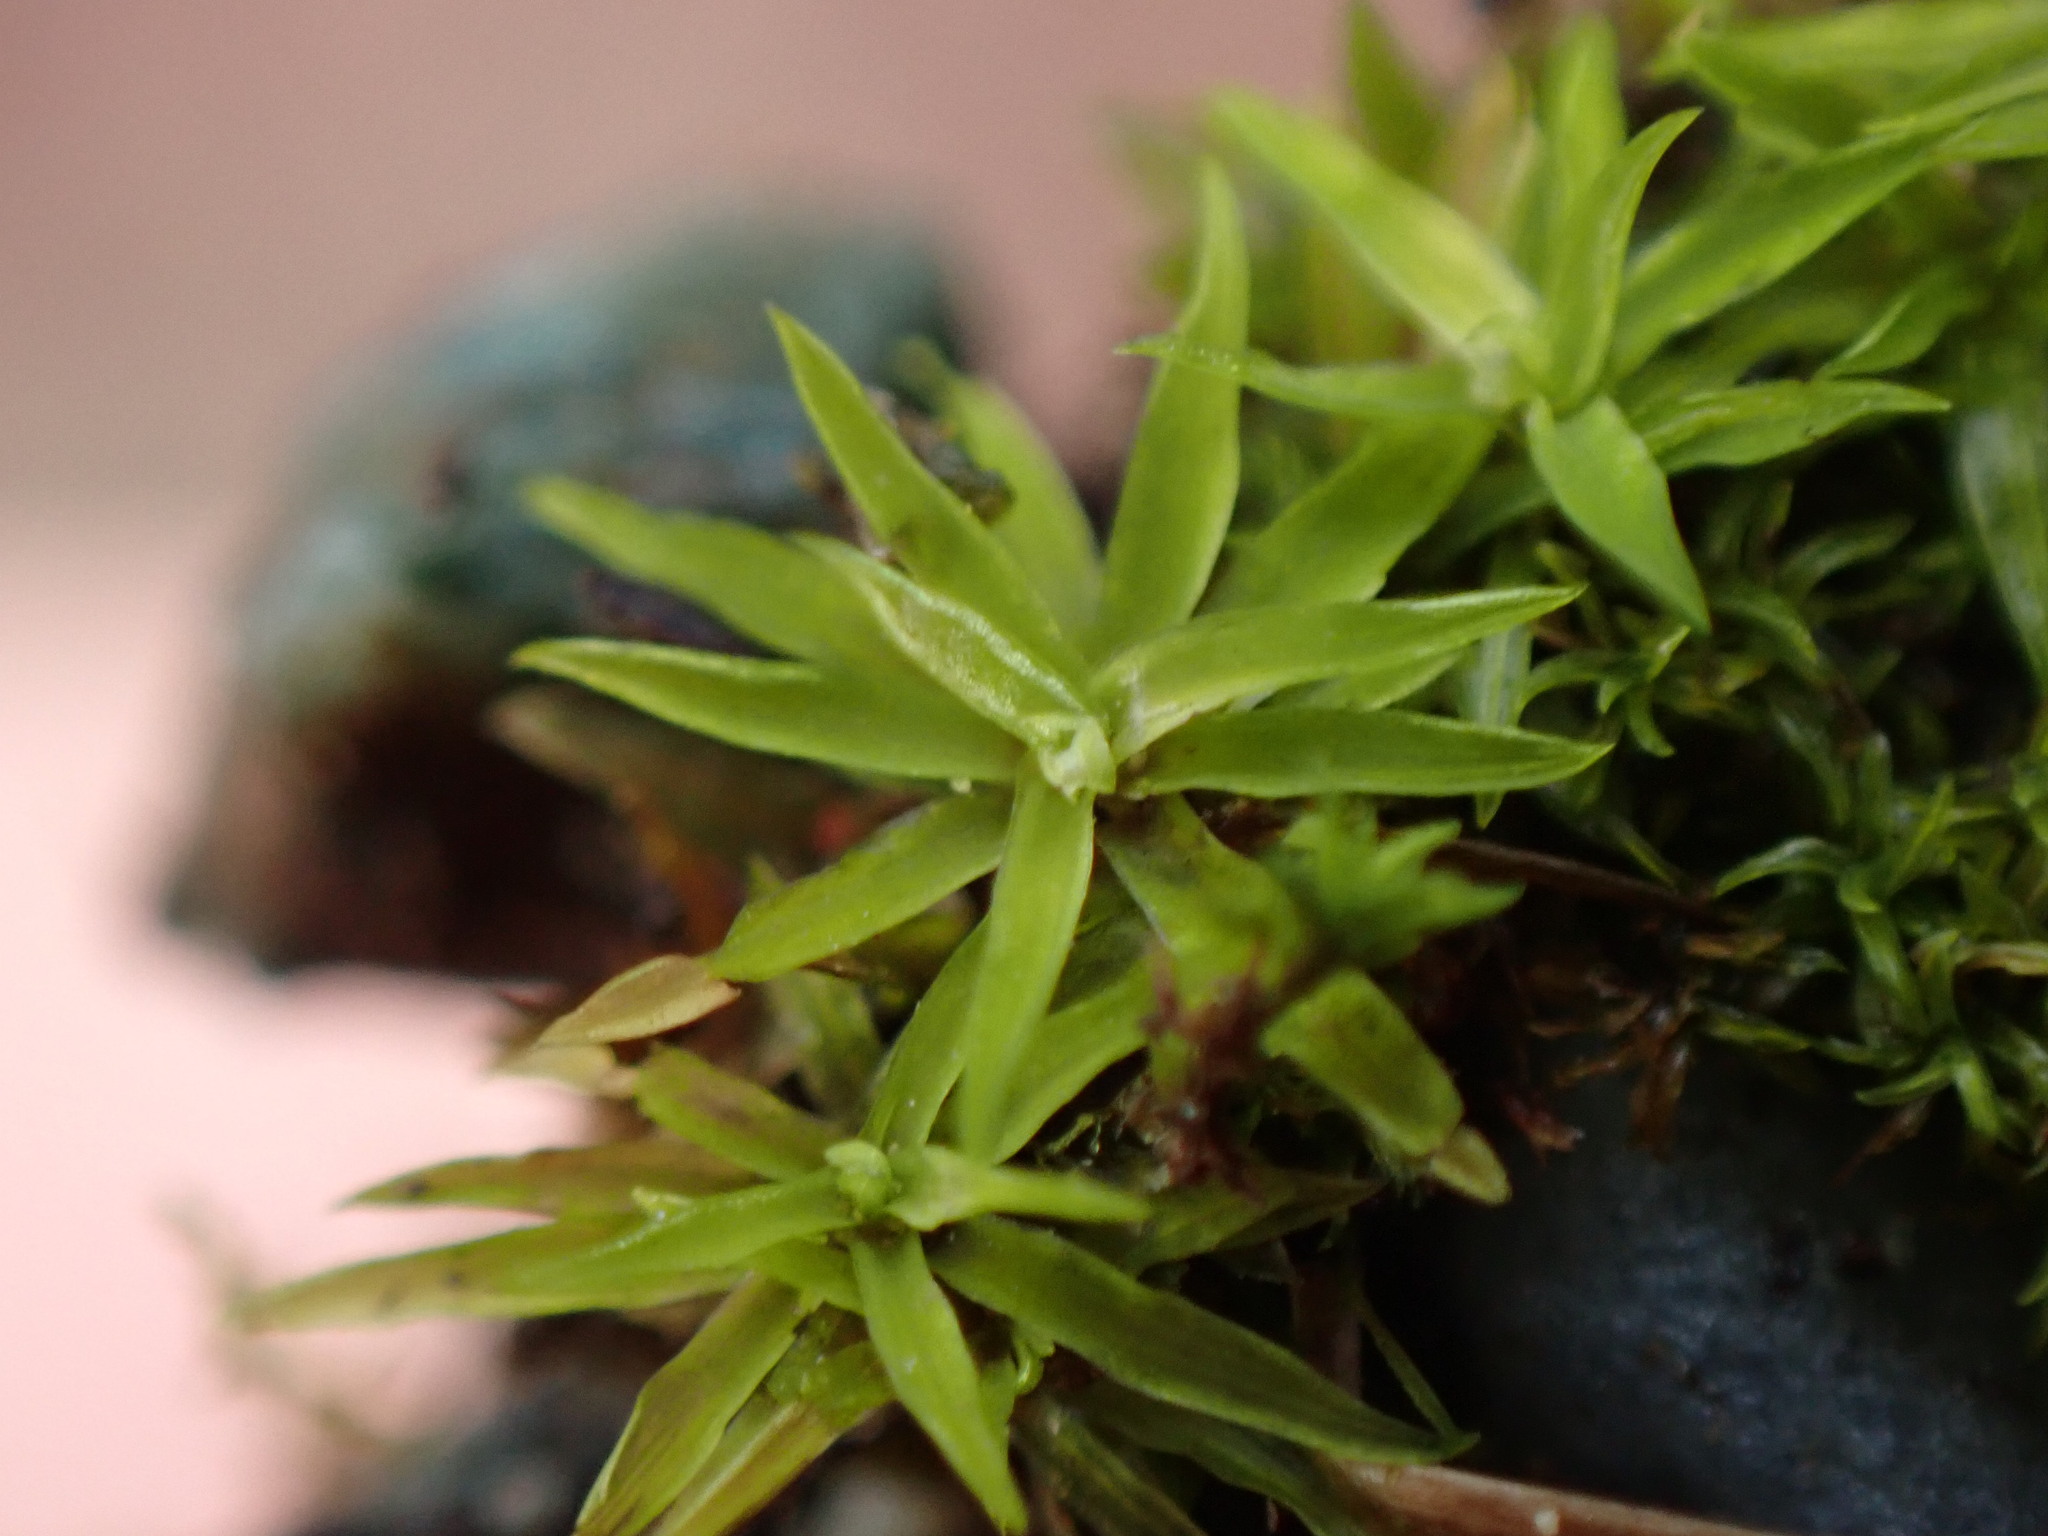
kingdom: Plantae
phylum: Bryophyta
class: Bryopsida
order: Scouleriales
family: Timmiellaceae
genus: Timmiella
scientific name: Timmiella crassinervis
